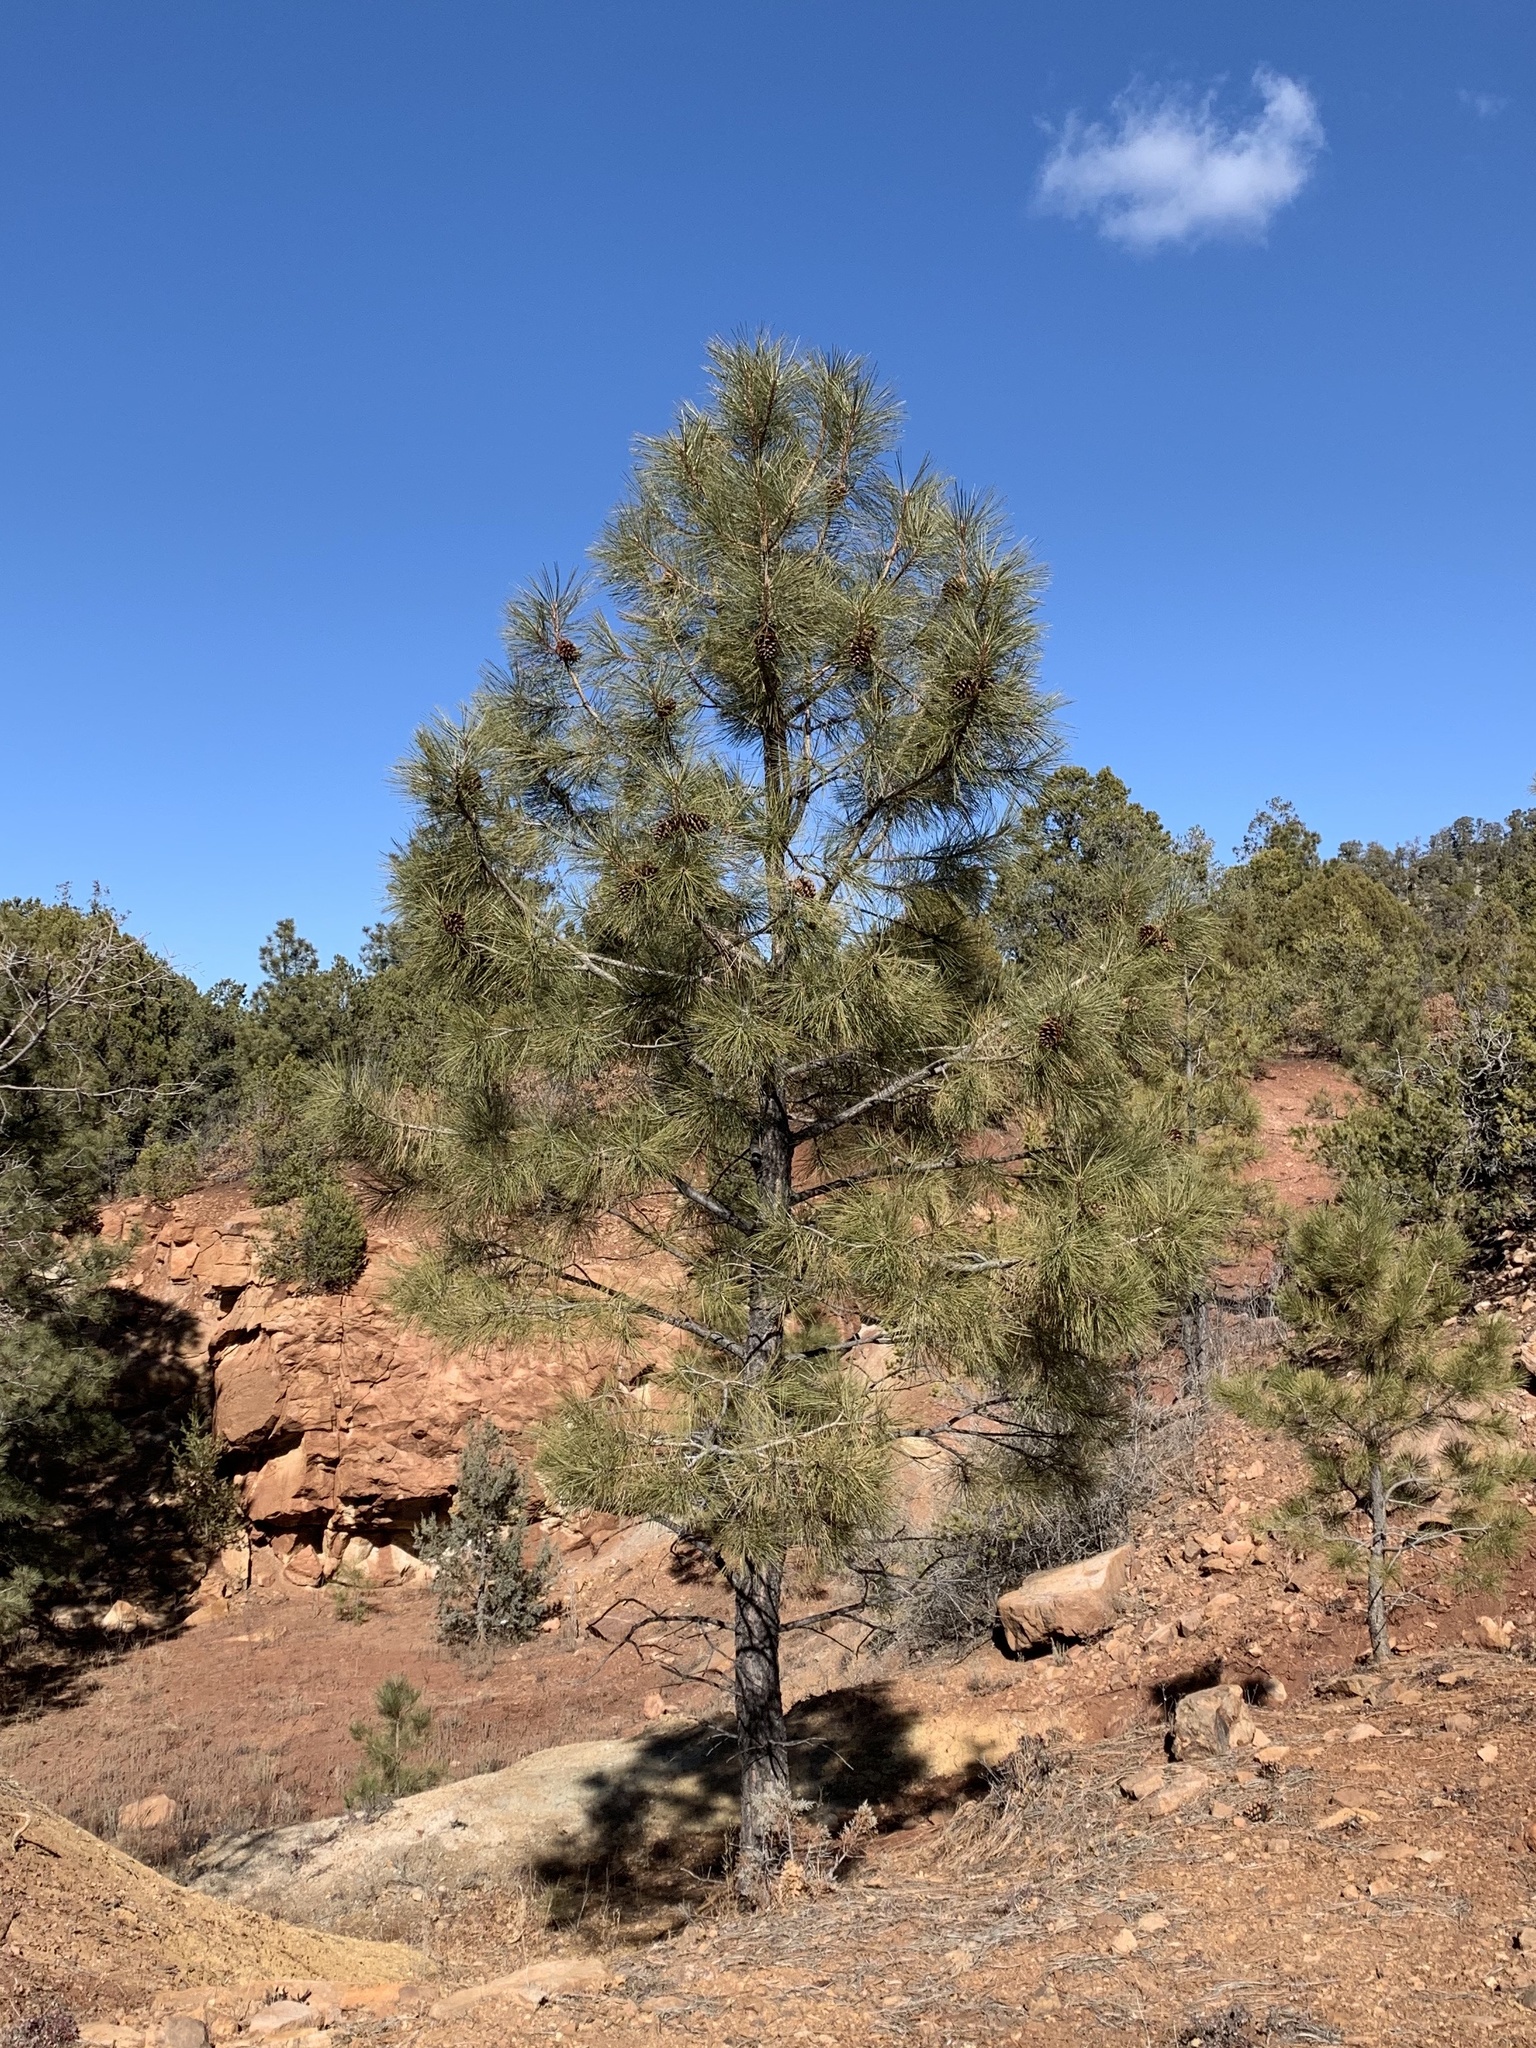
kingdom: Plantae
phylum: Tracheophyta
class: Pinopsida
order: Pinales
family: Pinaceae
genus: Pinus
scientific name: Pinus ponderosa
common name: Western yellow-pine
